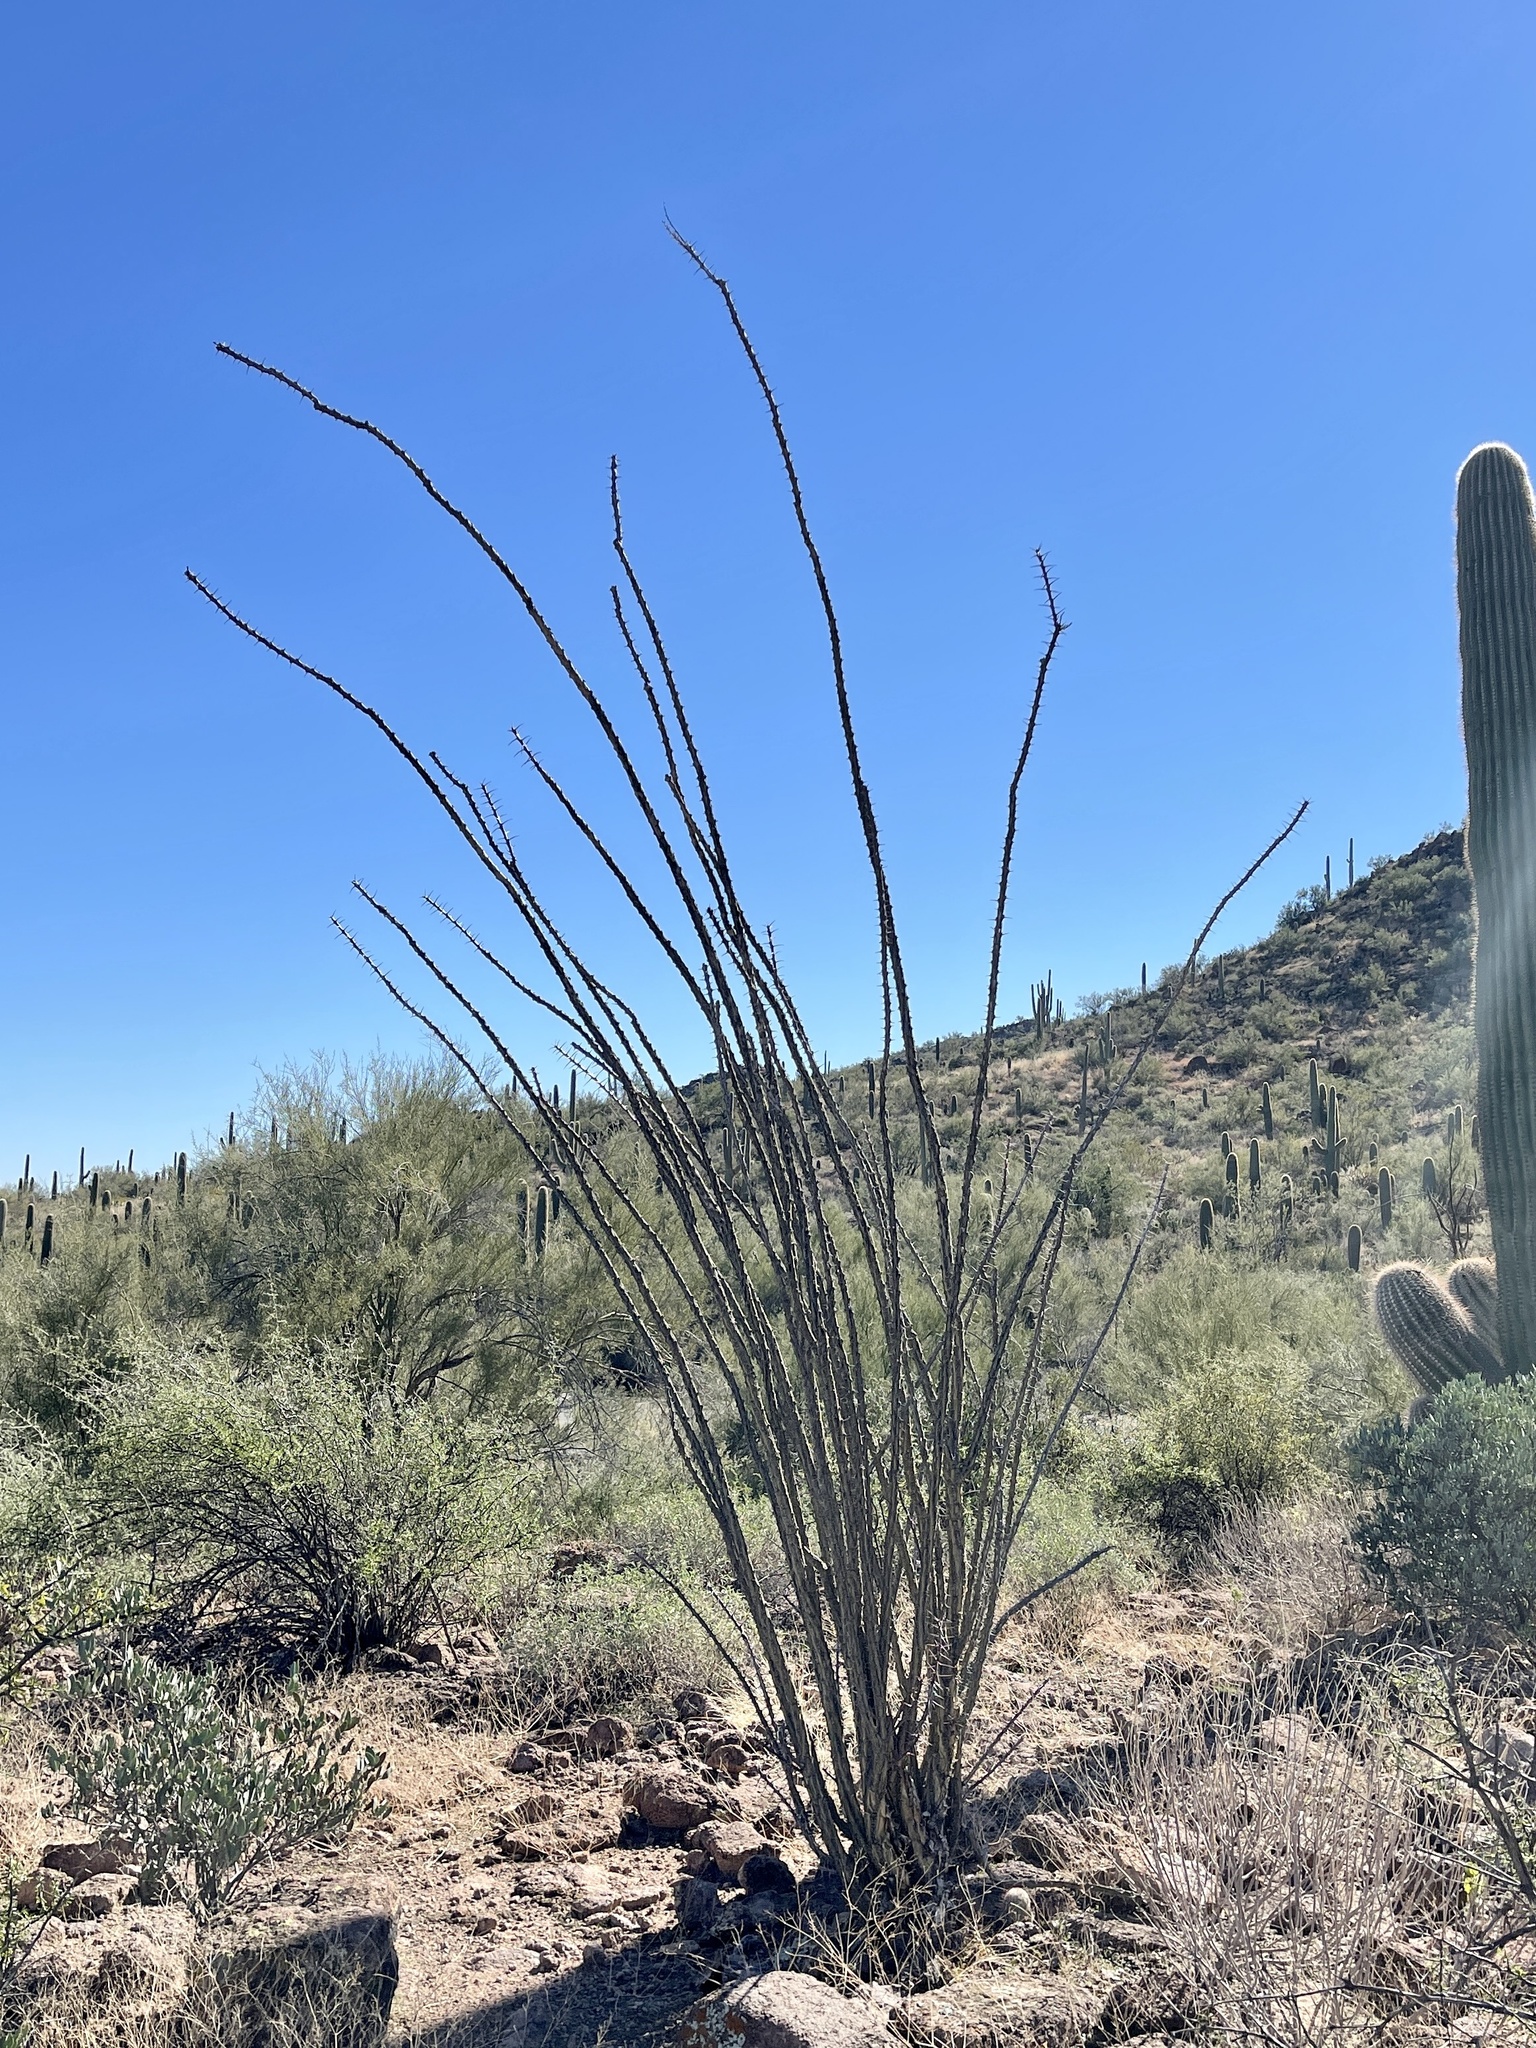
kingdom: Plantae
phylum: Tracheophyta
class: Magnoliopsida
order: Ericales
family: Fouquieriaceae
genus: Fouquieria
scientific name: Fouquieria splendens
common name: Vine-cactus
